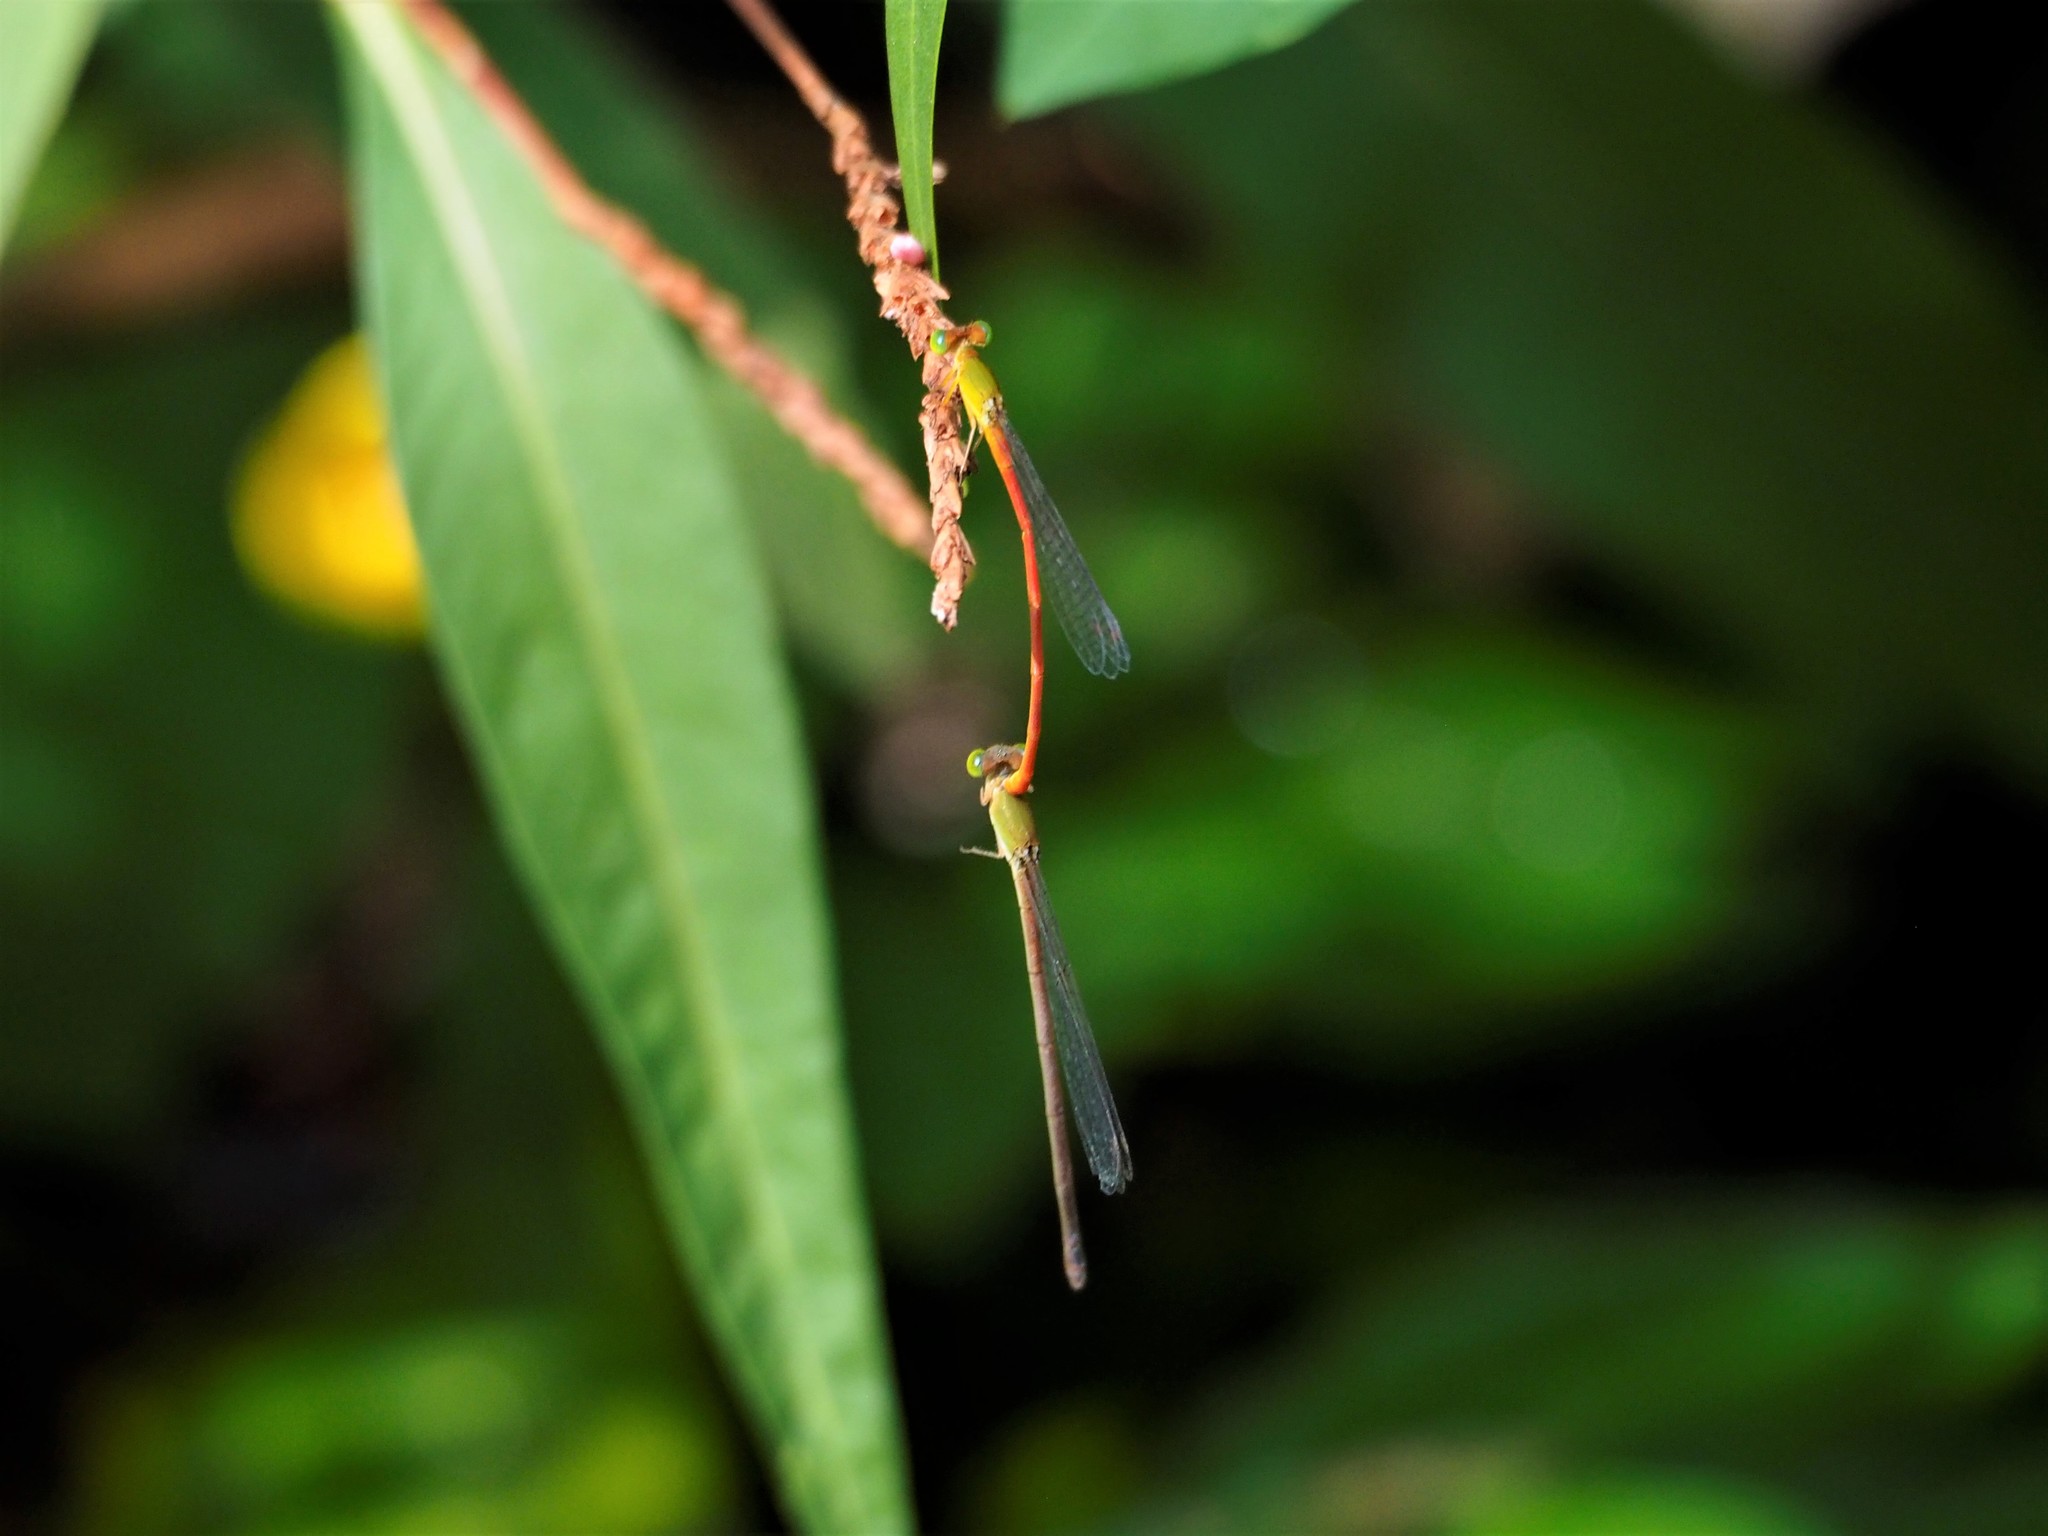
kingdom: Animalia
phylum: Arthropoda
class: Insecta
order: Odonata
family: Coenagrionidae
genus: Ceriagrion
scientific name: Ceriagrion auranticum
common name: Orange-tailed sprite
